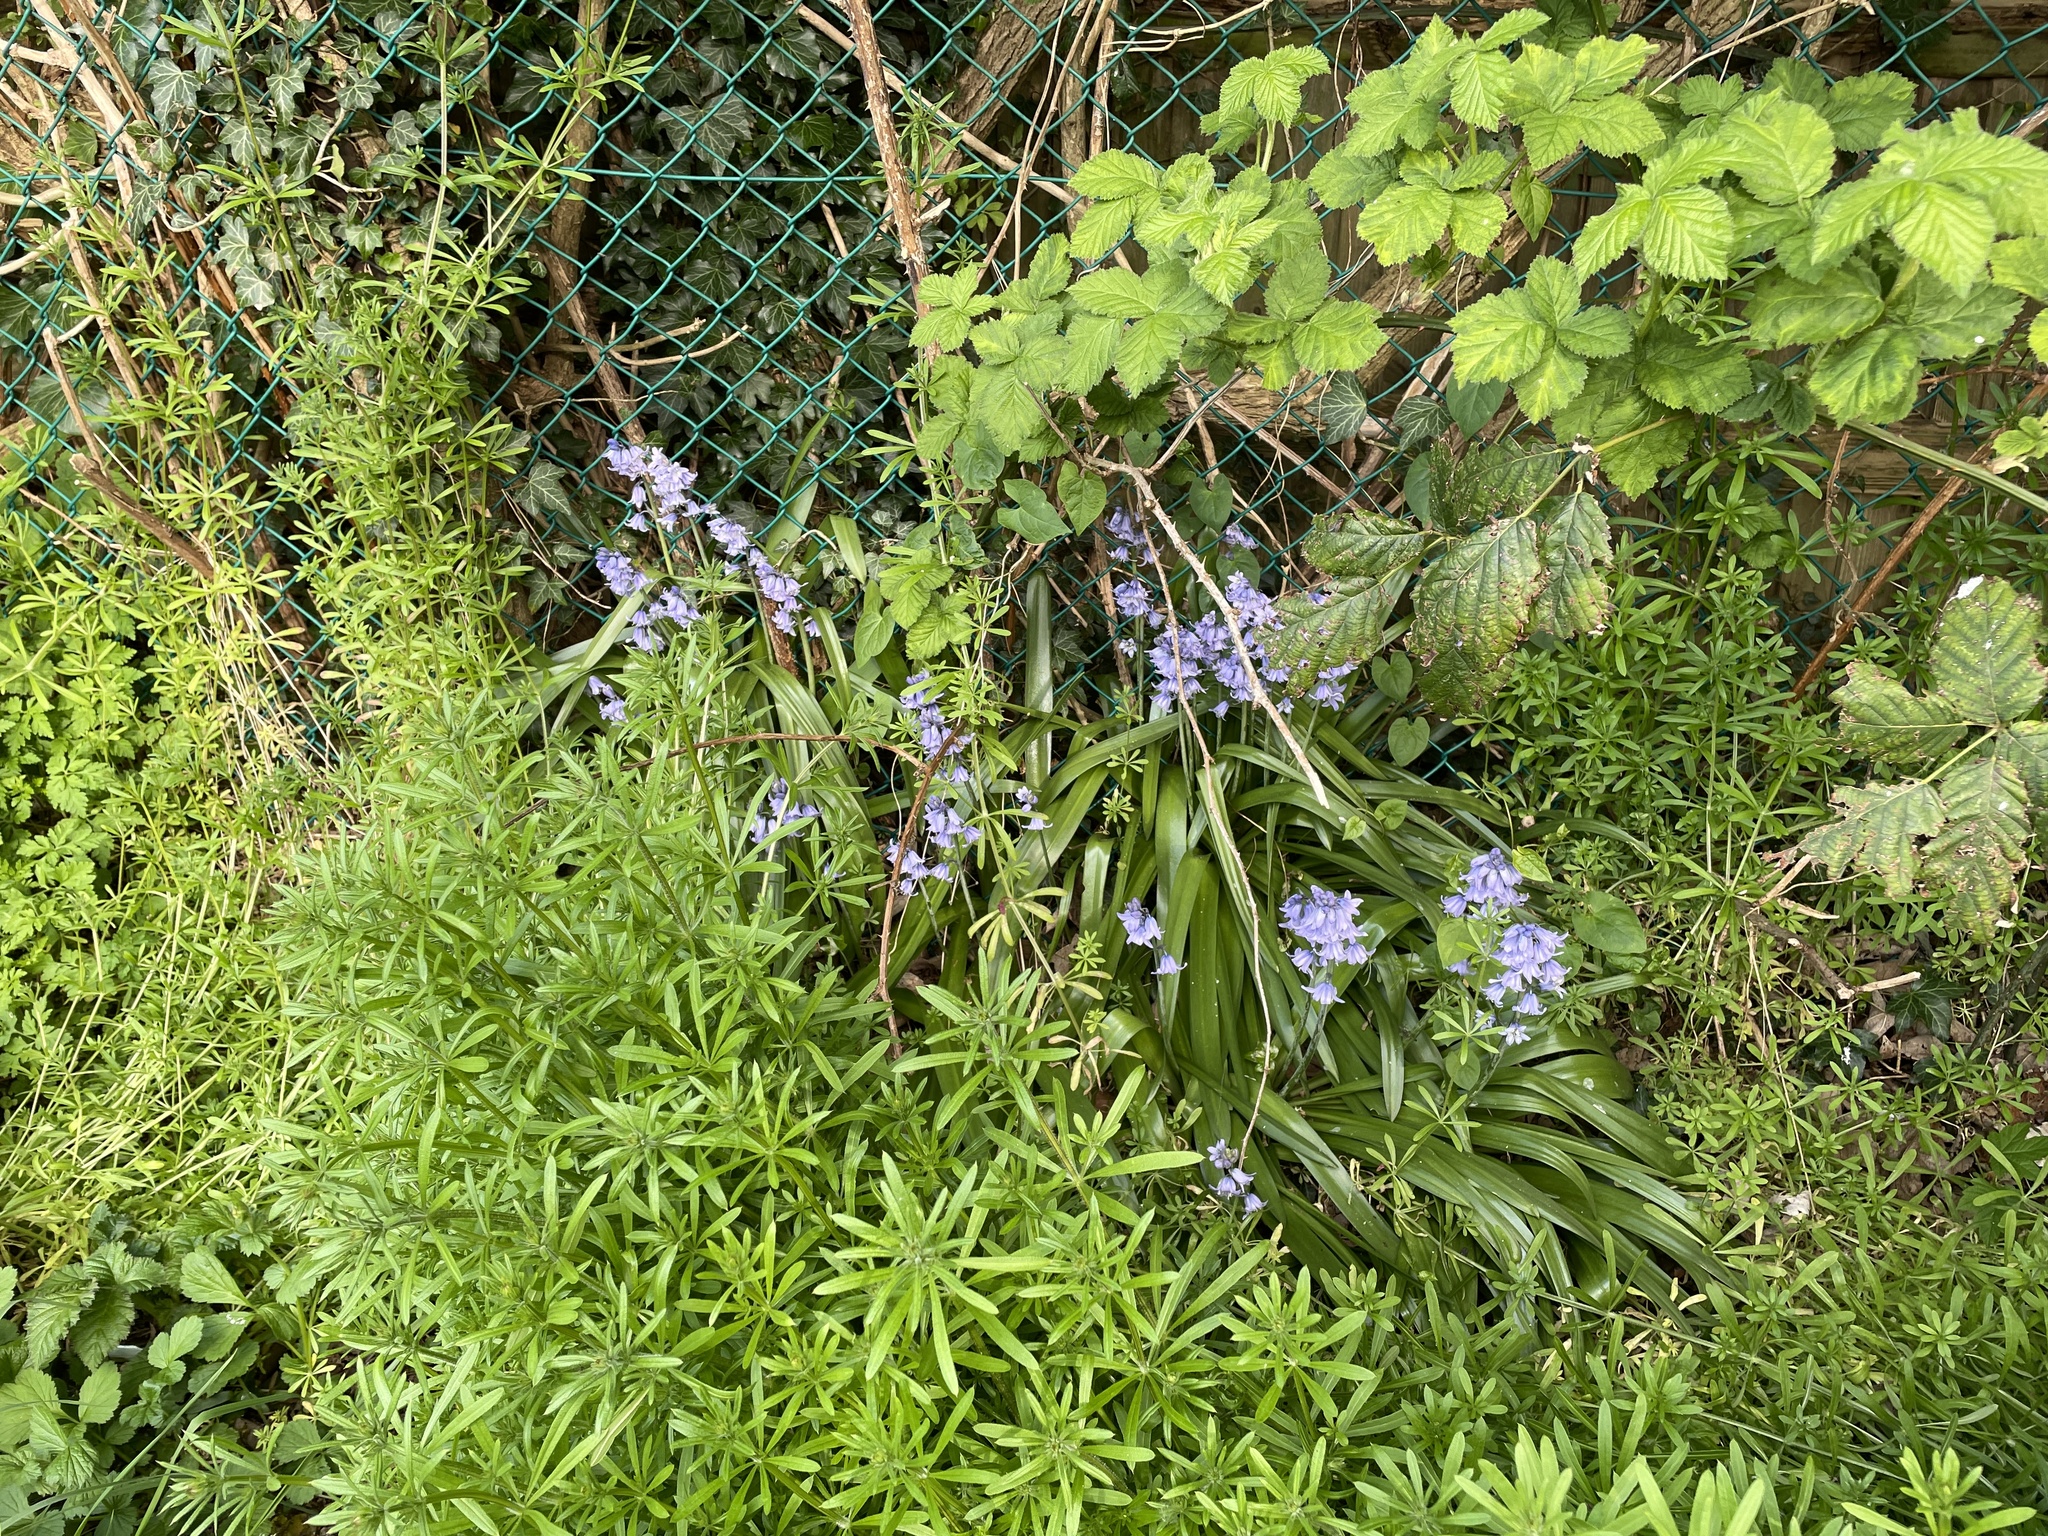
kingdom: Plantae
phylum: Tracheophyta
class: Liliopsida
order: Asparagales
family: Asparagaceae
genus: Hyacinthoides
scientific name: Hyacinthoides hispanica
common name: Spanish bluebell
